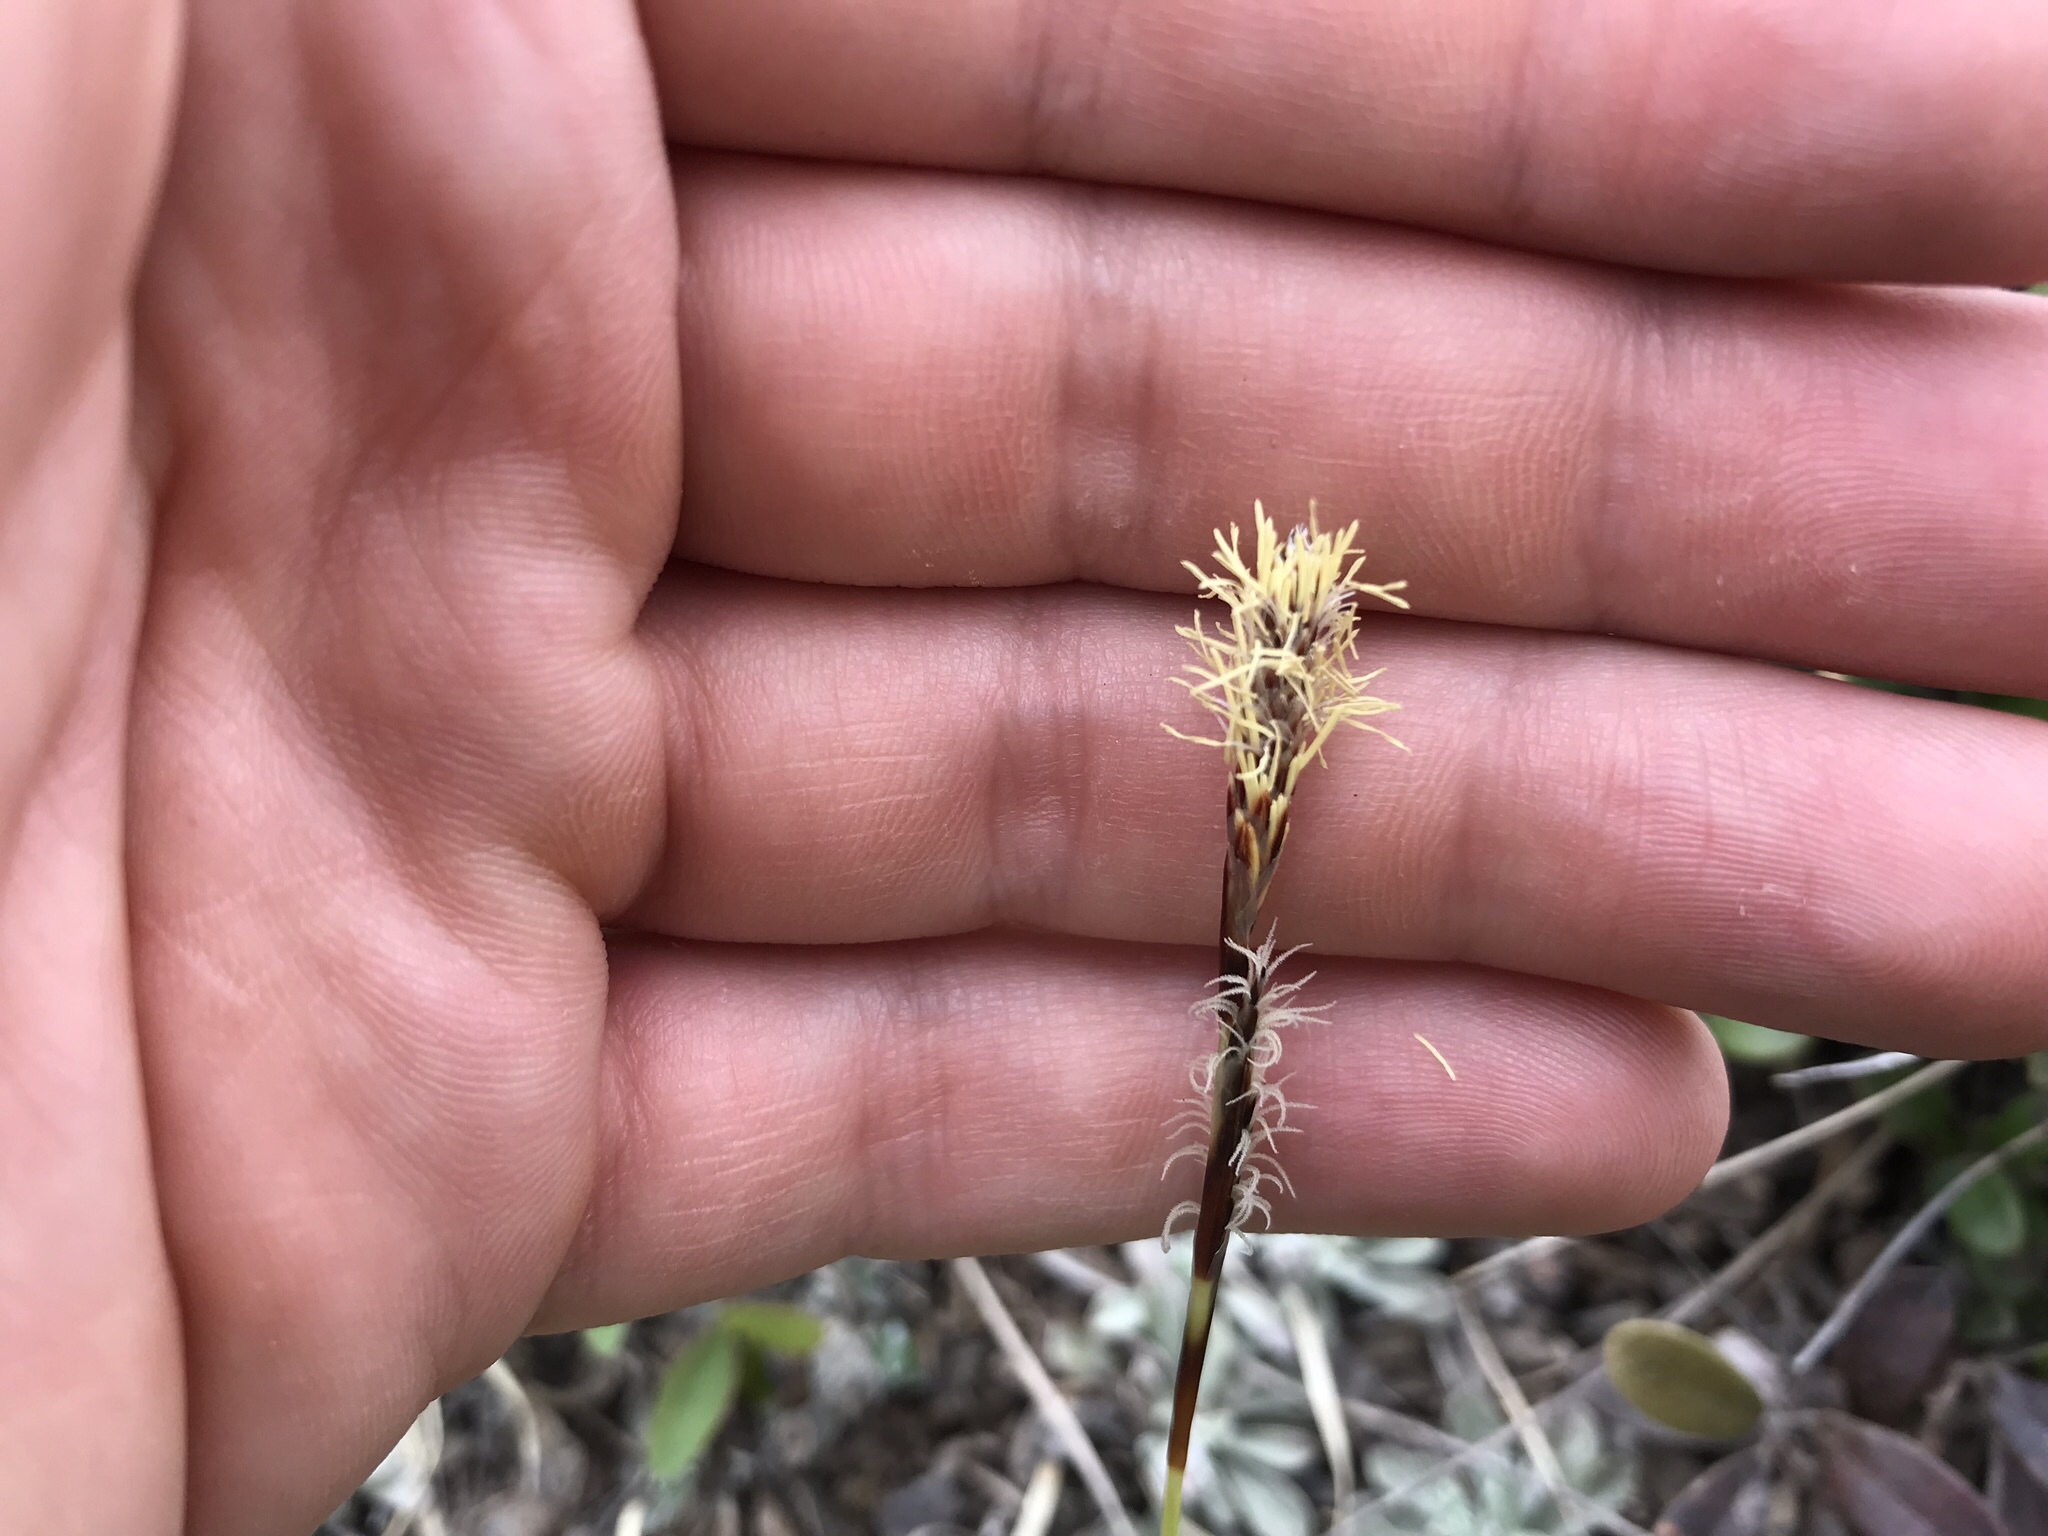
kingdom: Plantae
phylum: Tracheophyta
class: Liliopsida
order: Poales
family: Cyperaceae
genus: Carex
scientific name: Carex concinnoides
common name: Northwest sedge
